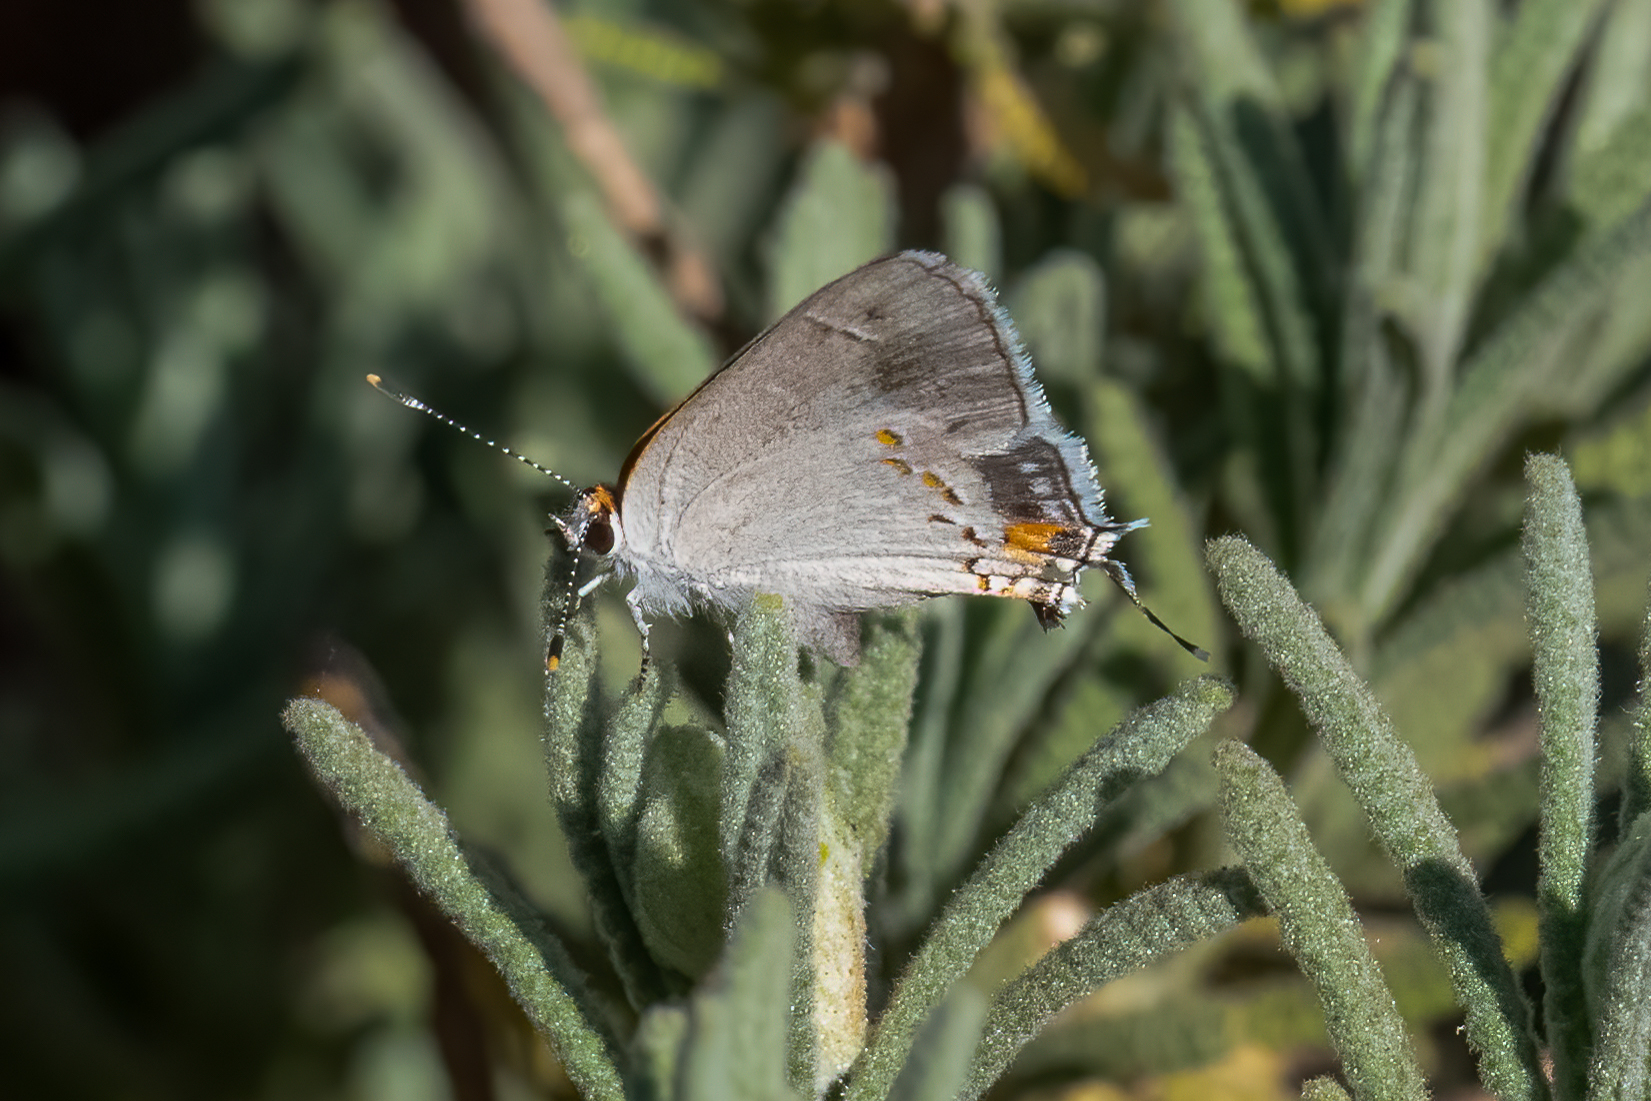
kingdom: Animalia
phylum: Arthropoda
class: Insecta
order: Lepidoptera
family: Lycaenidae
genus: Strymon
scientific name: Strymon melinus
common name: Gray hairstreak
